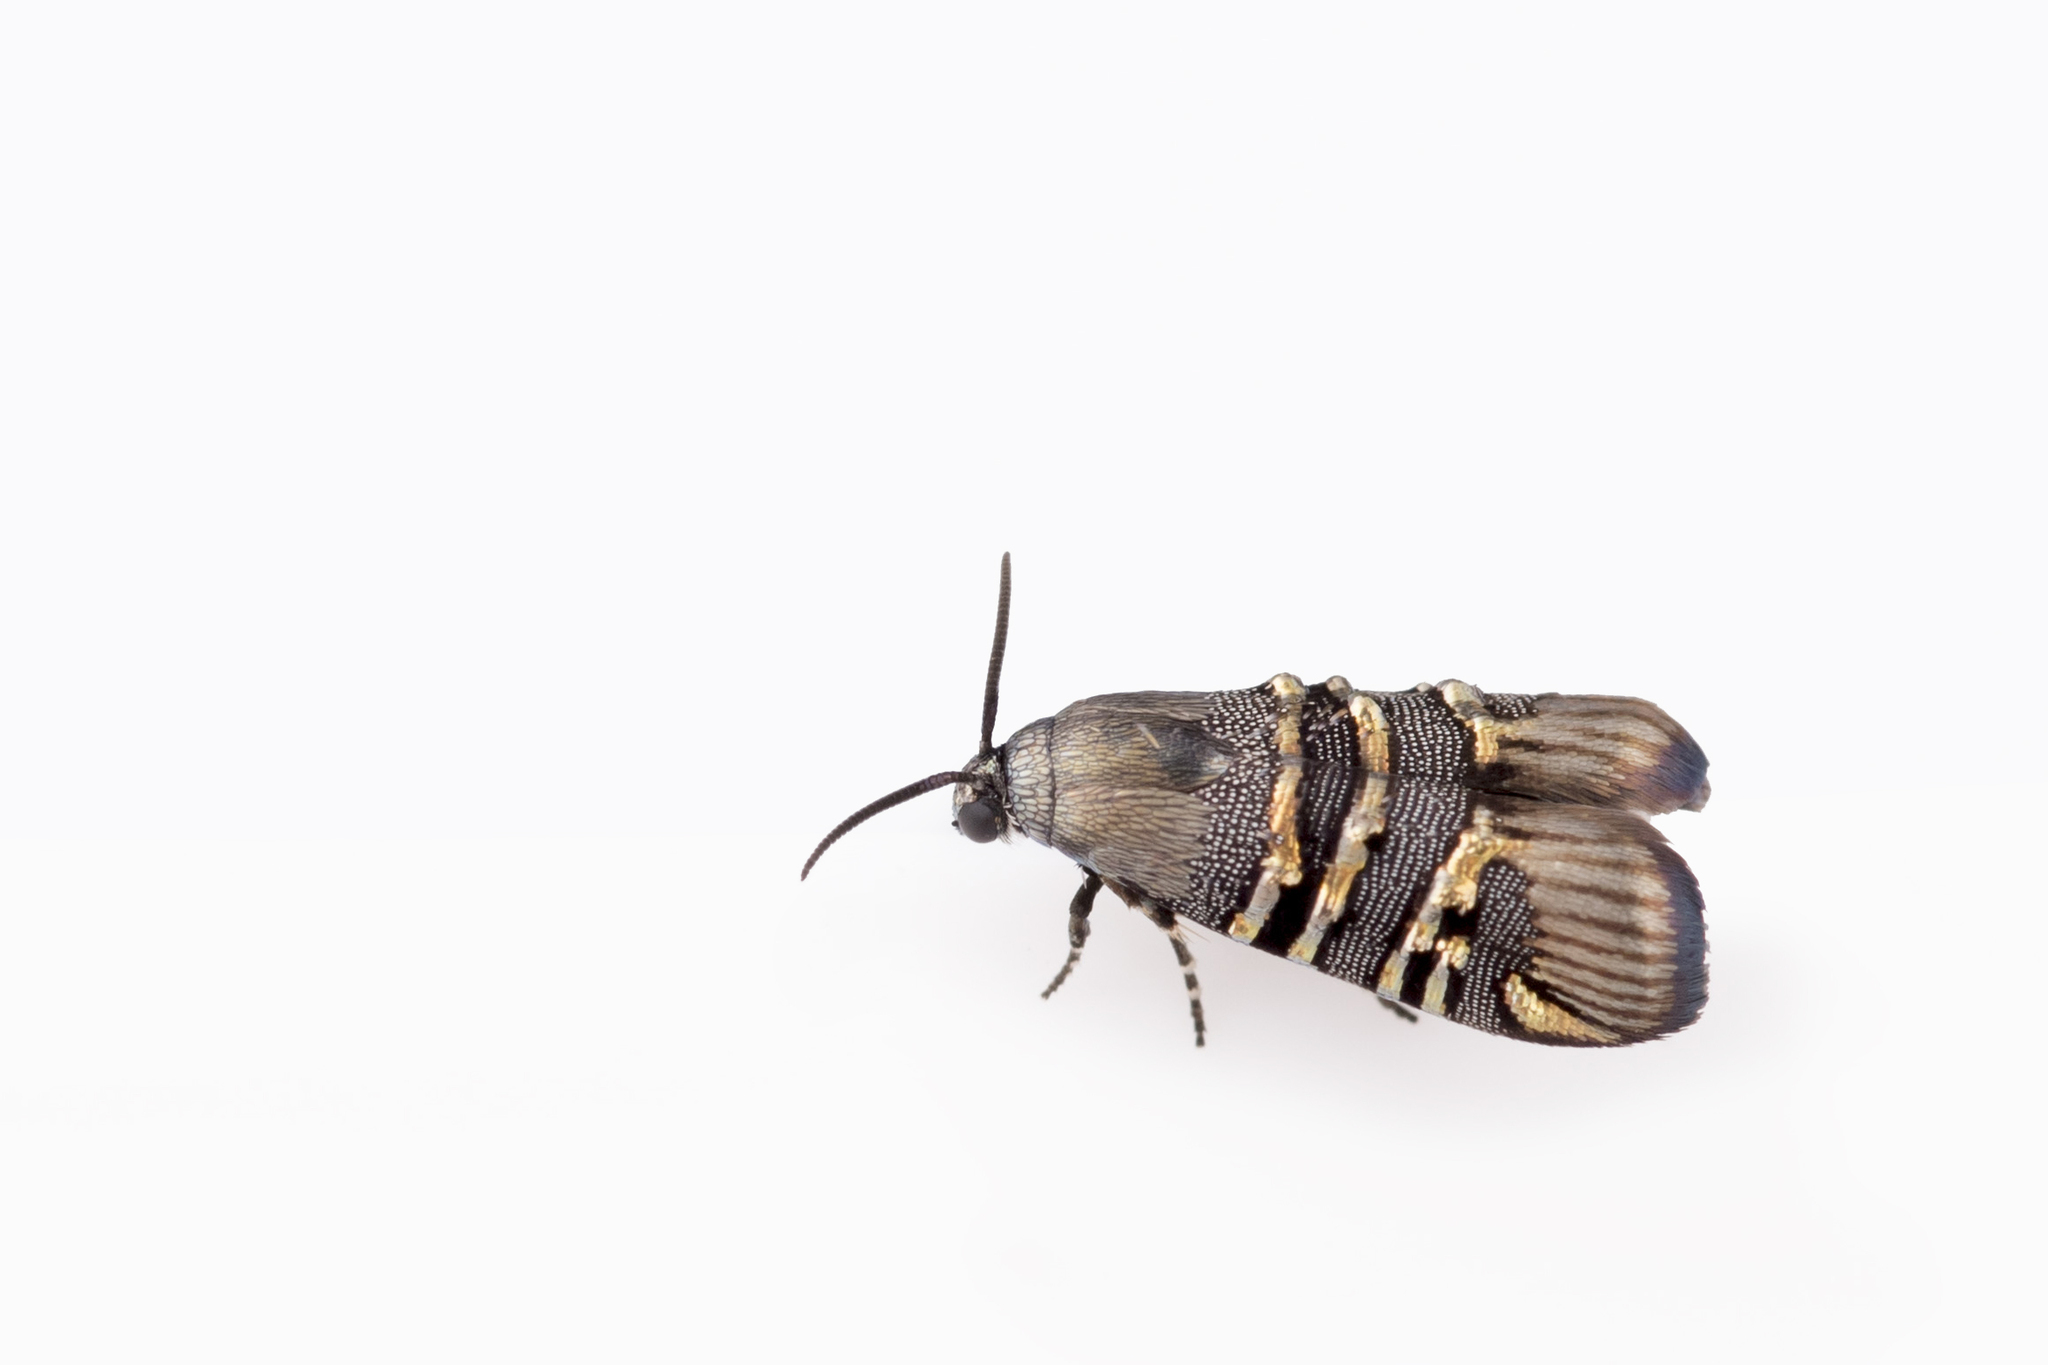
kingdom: Animalia
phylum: Arthropoda
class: Insecta
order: Lepidoptera
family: Brachodidae
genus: Phycodes
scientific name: Phycodes limata
